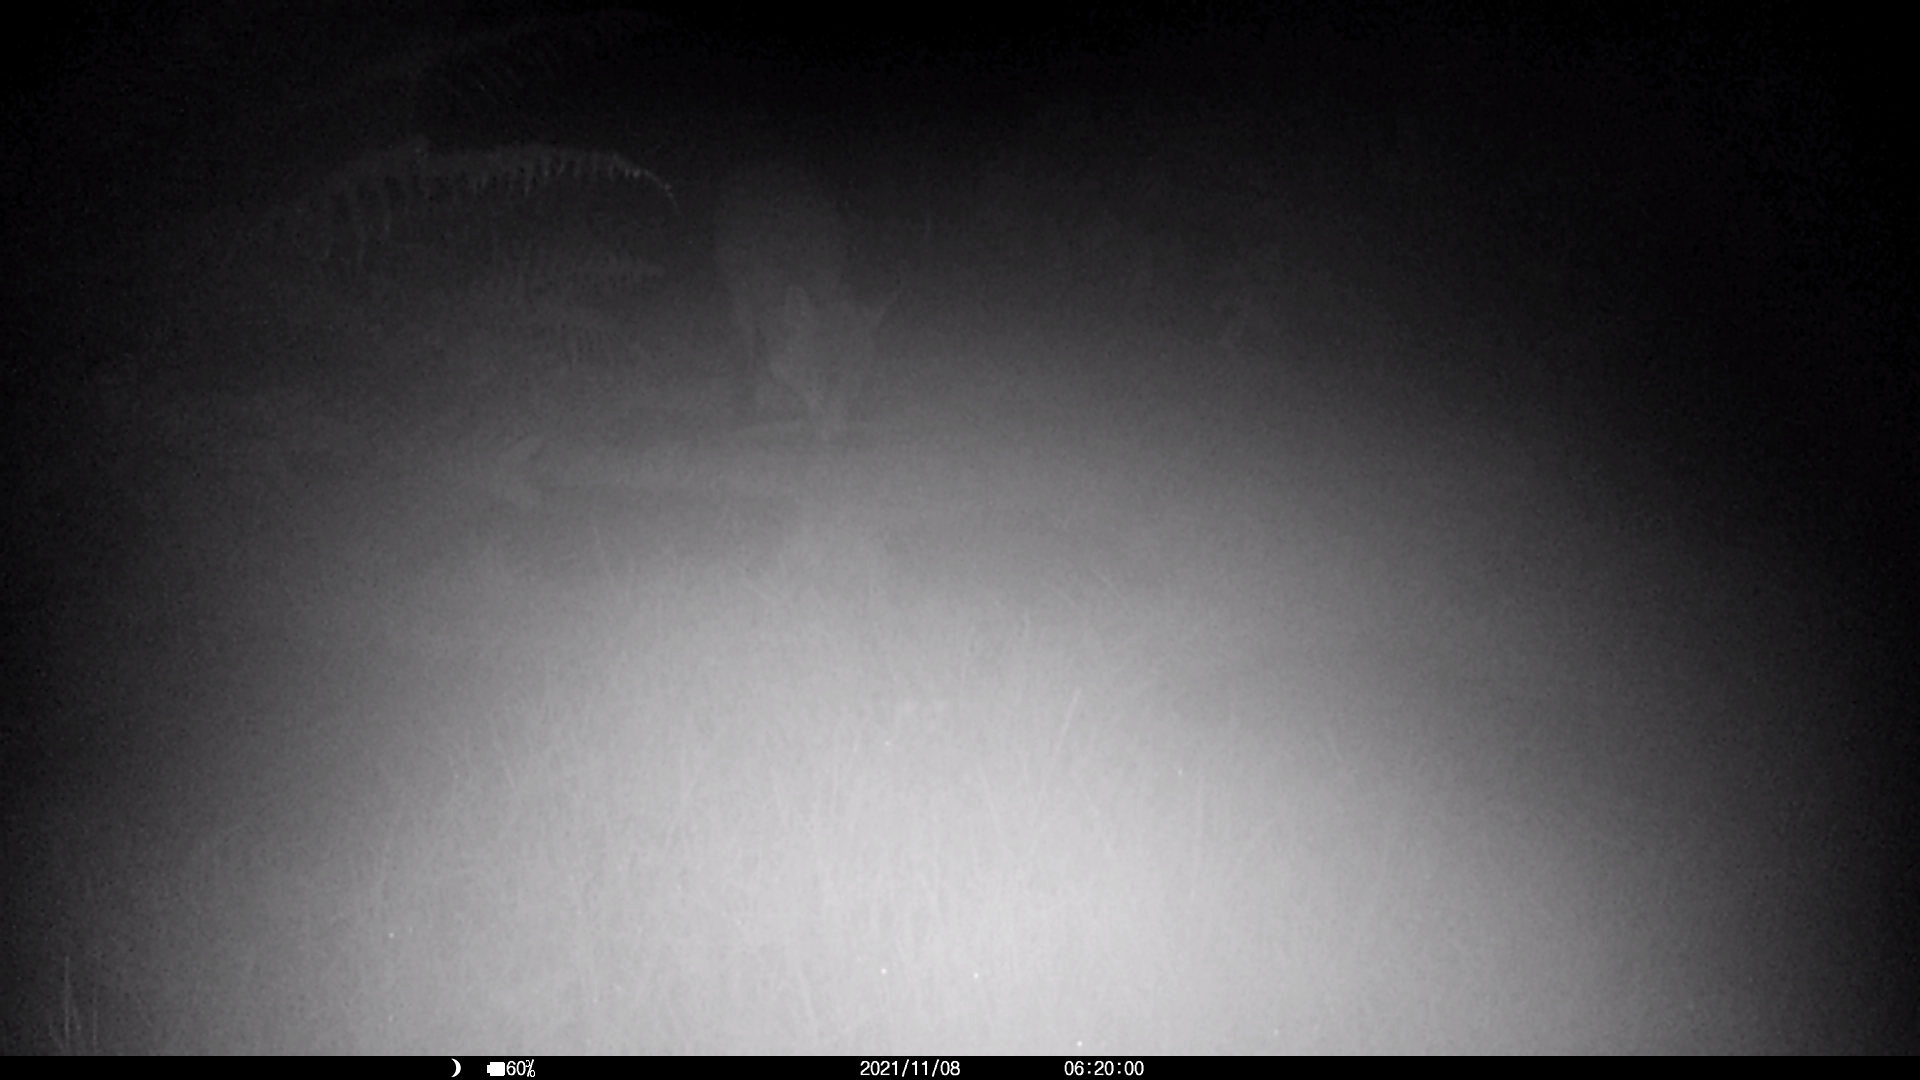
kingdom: Animalia
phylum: Chordata
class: Mammalia
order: Carnivora
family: Canidae
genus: Vulpes
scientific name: Vulpes vulpes
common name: Red fox
